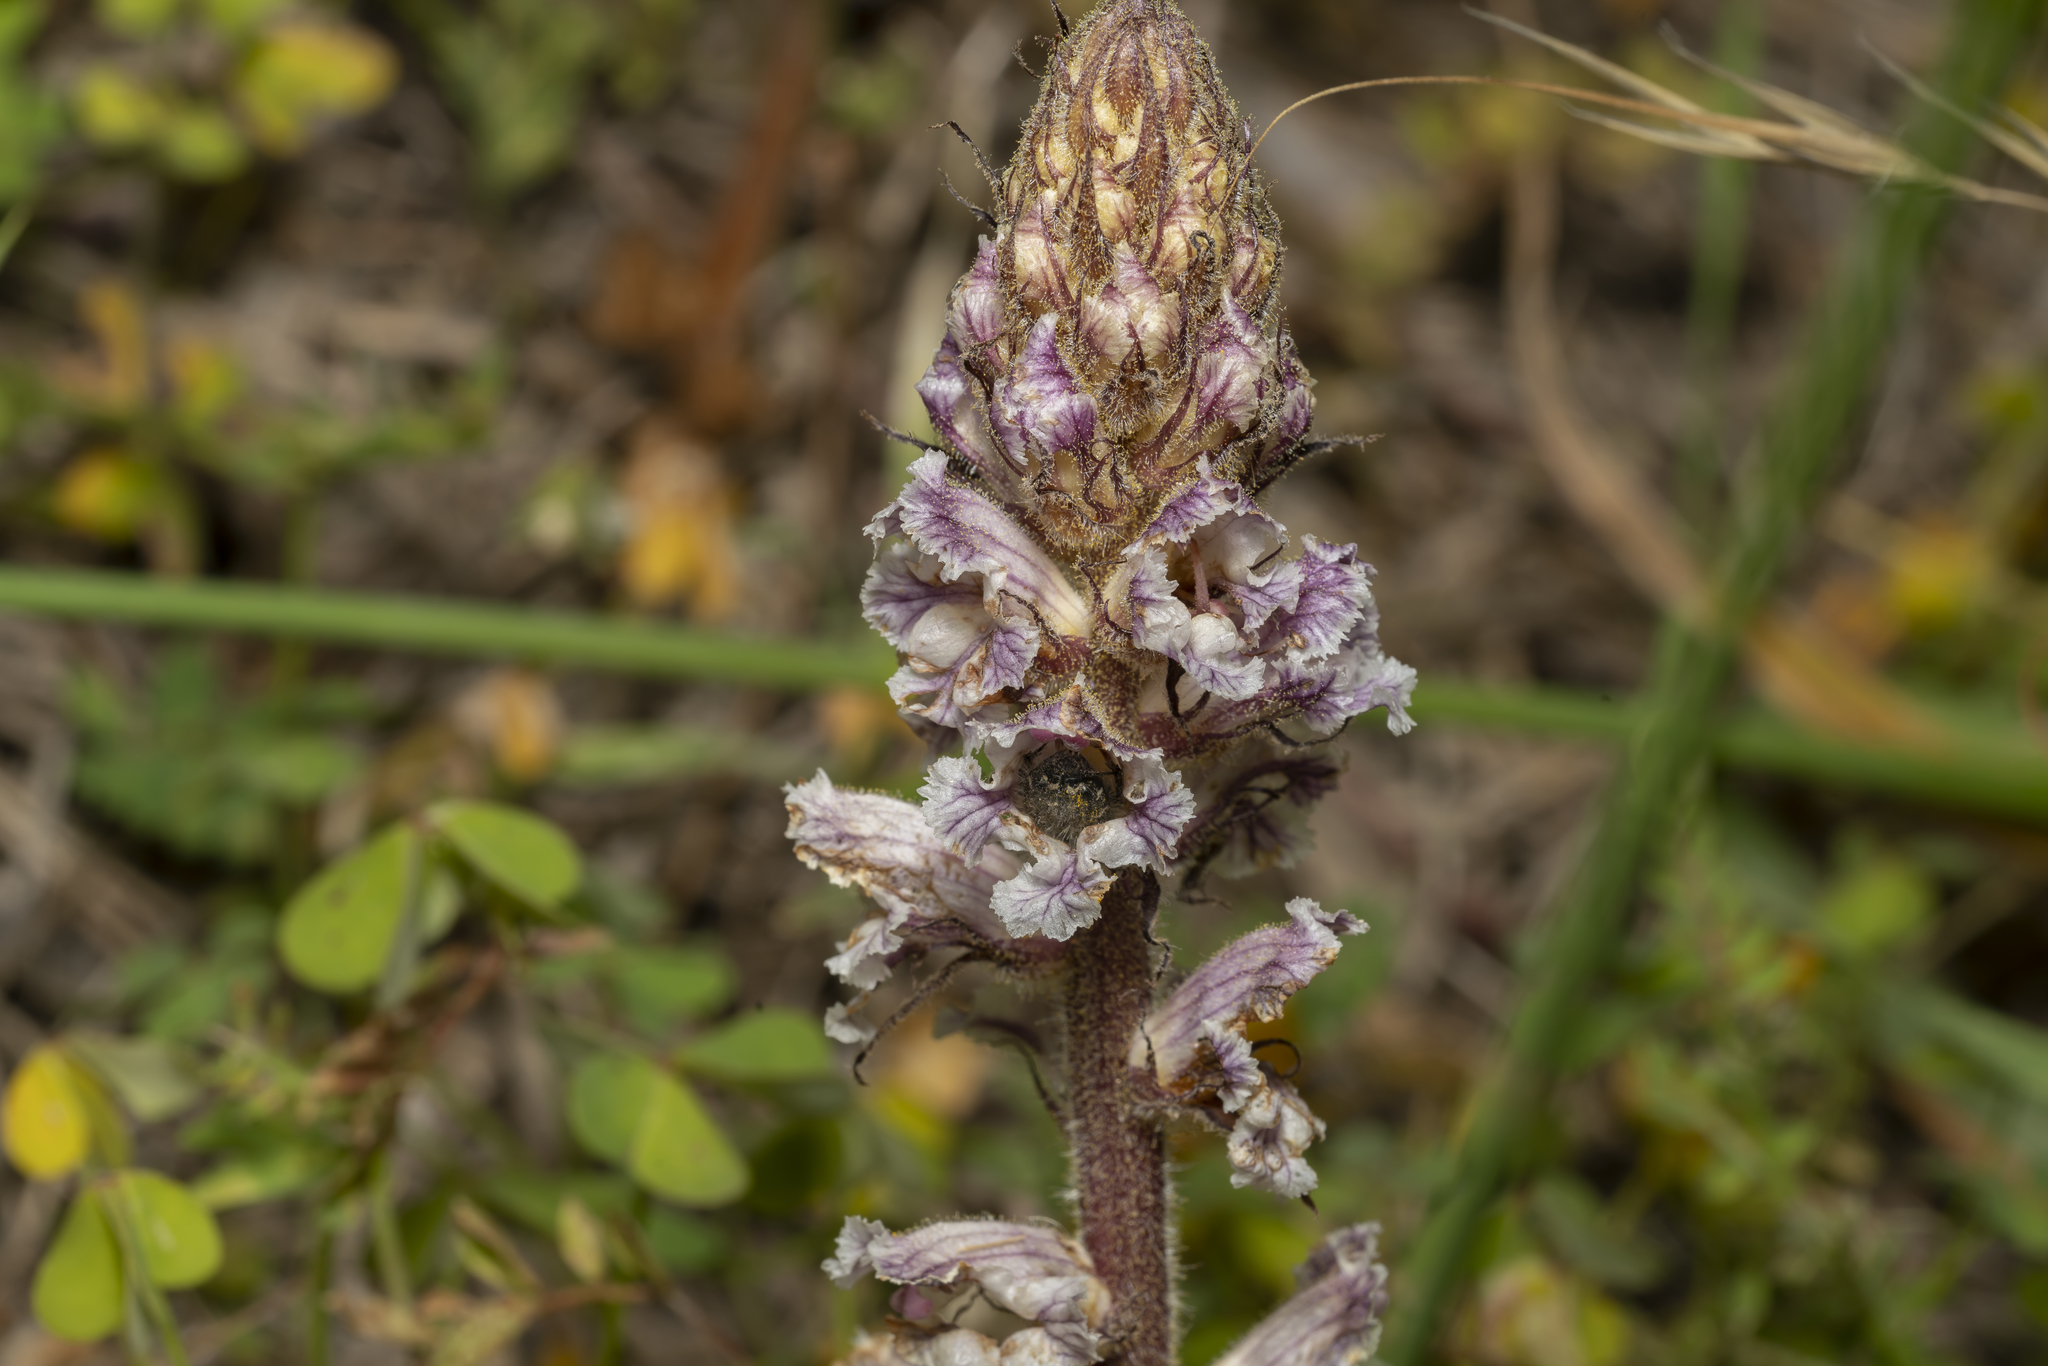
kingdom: Plantae
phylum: Tracheophyta
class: Magnoliopsida
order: Lamiales
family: Orobanchaceae
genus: Orobanche
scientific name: Orobanche crenata
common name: Bean broomrape
